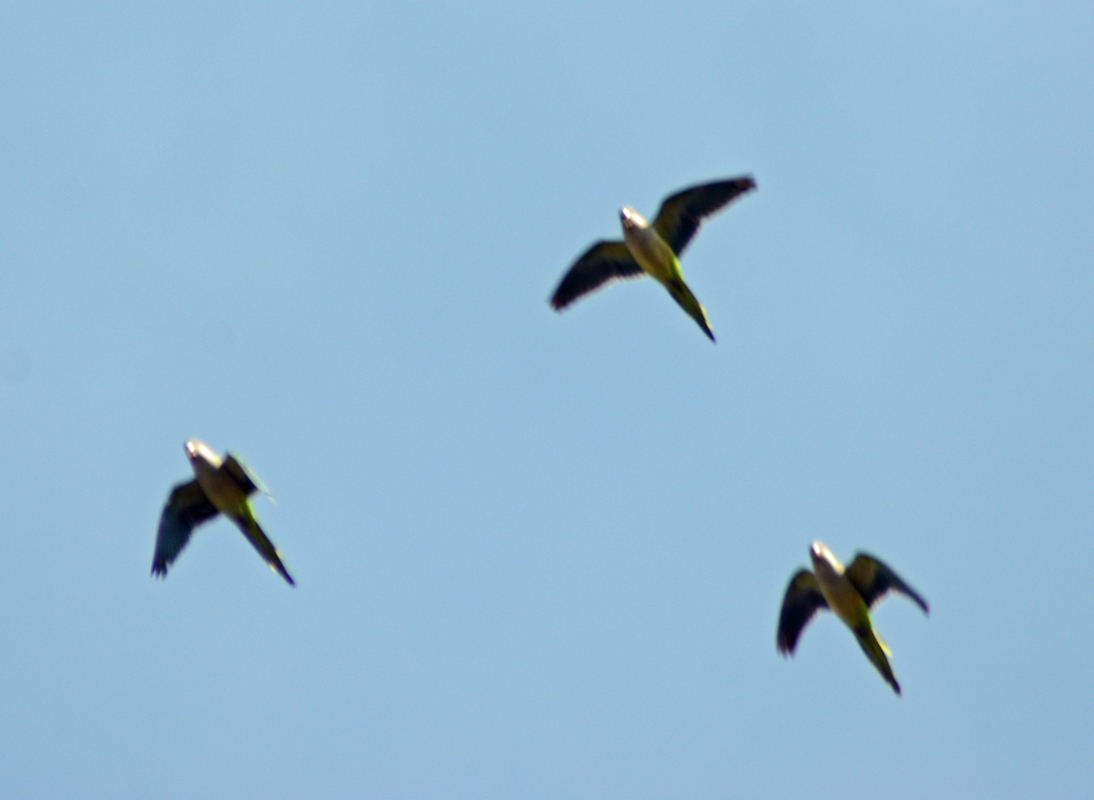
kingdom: Animalia
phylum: Chordata
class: Aves
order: Psittaciformes
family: Psittacidae
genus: Myiopsitta
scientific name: Myiopsitta monachus
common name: Monk parakeet
